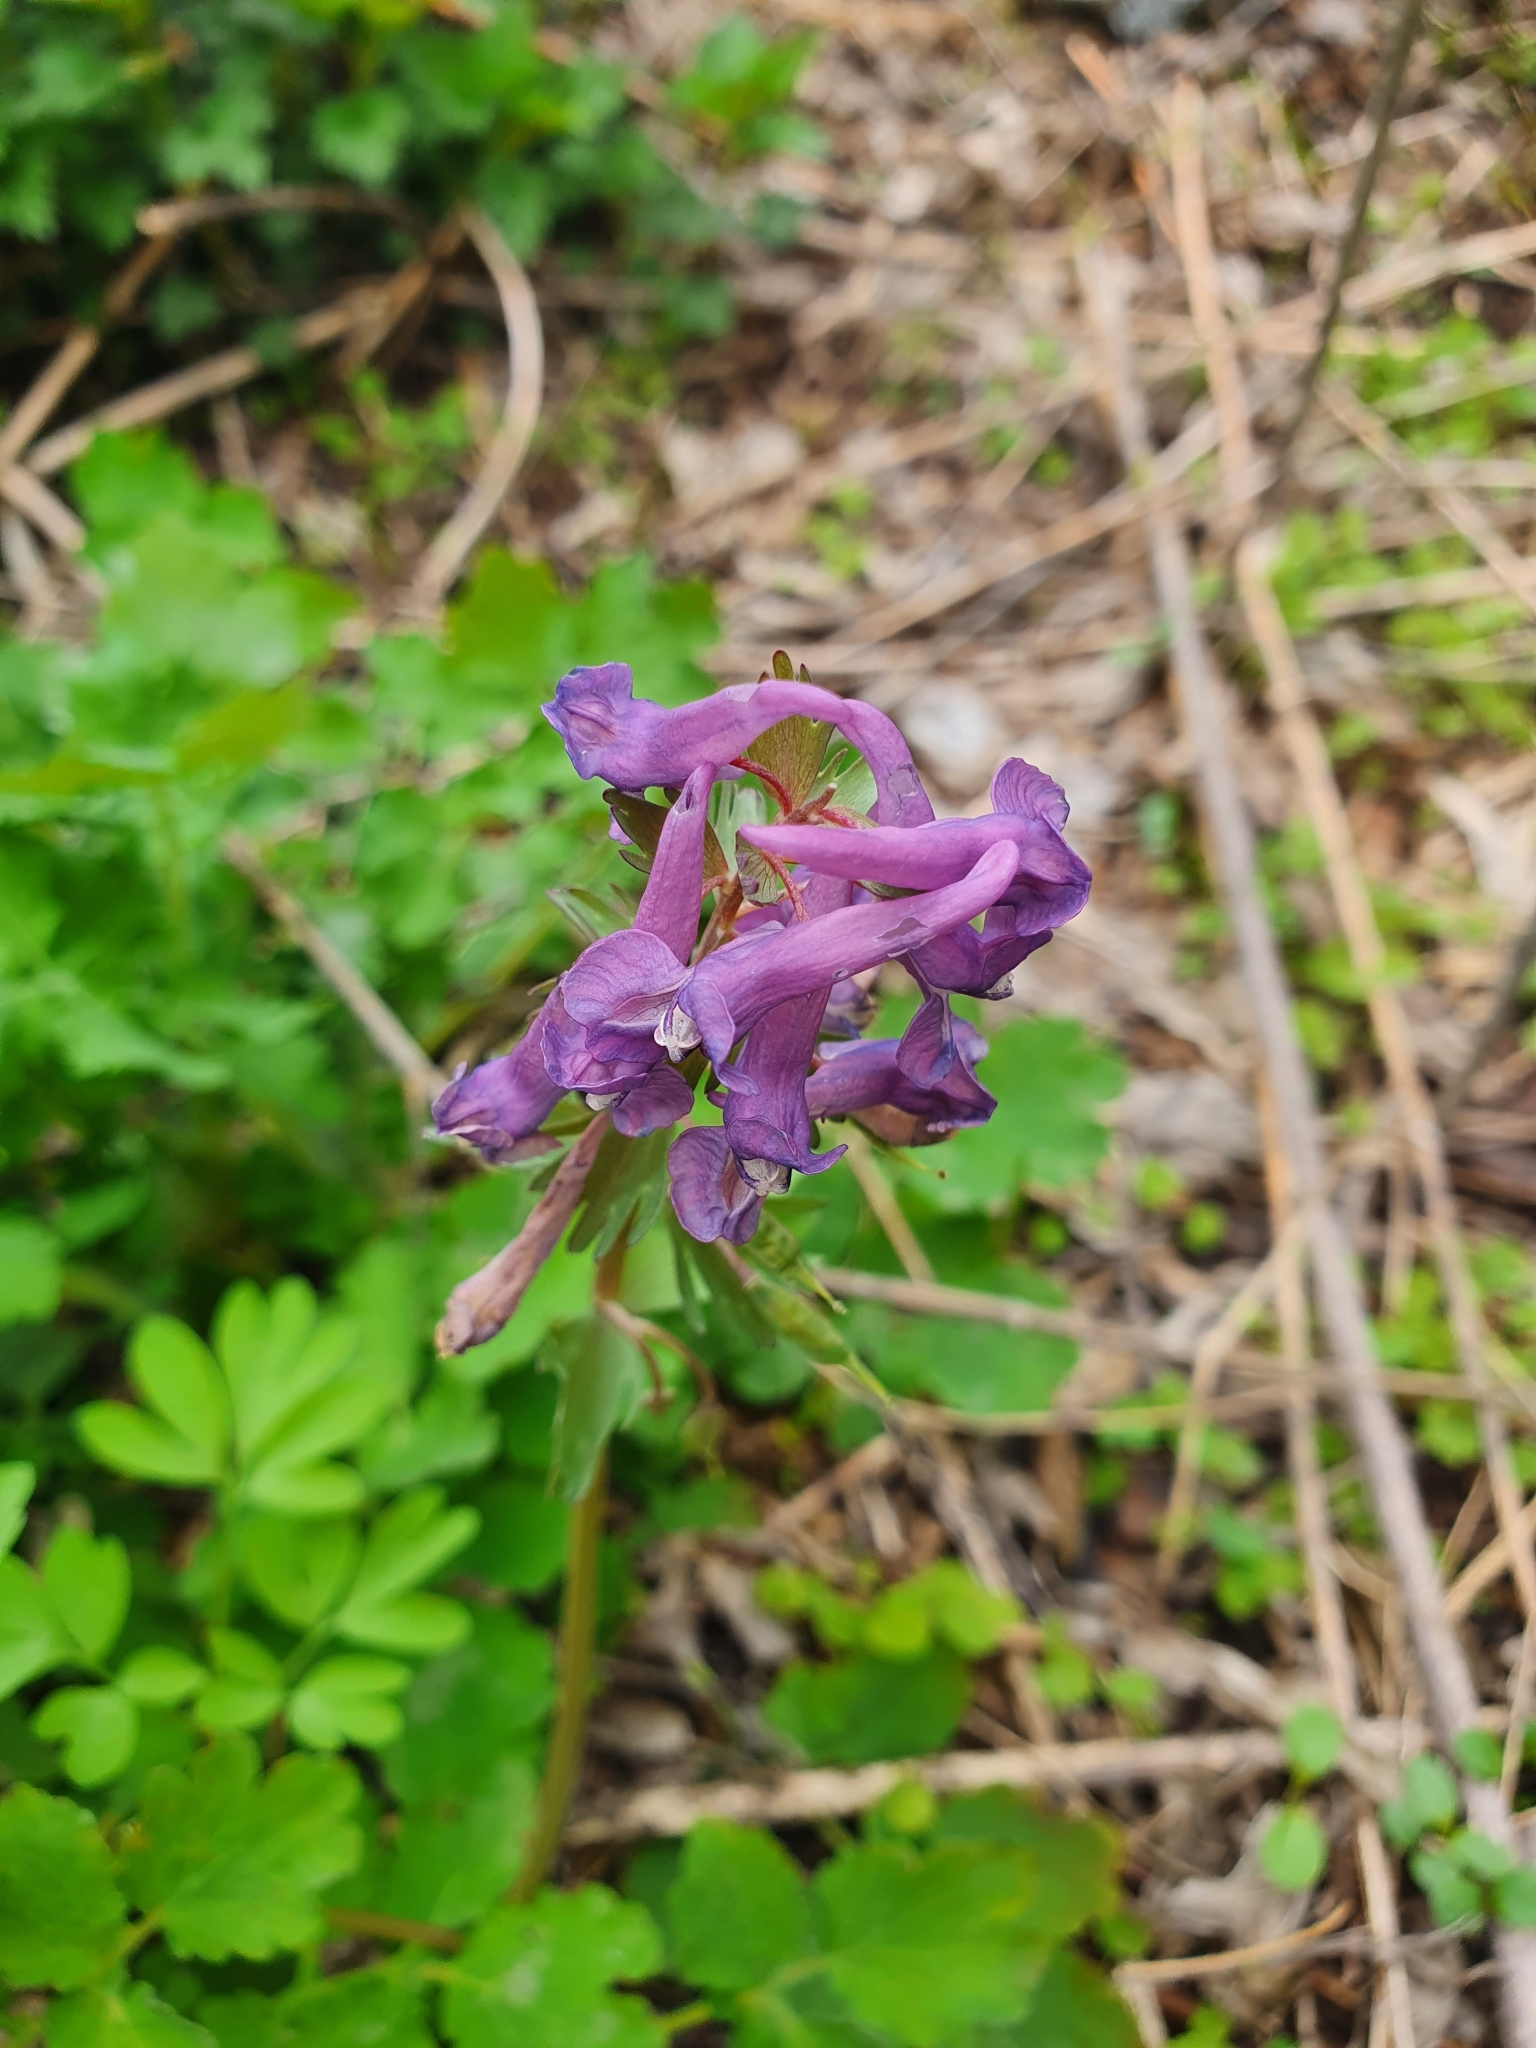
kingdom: Plantae
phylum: Tracheophyta
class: Magnoliopsida
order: Ranunculales
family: Papaveraceae
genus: Corydalis
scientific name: Corydalis solida
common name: Bird-in-a-bush
